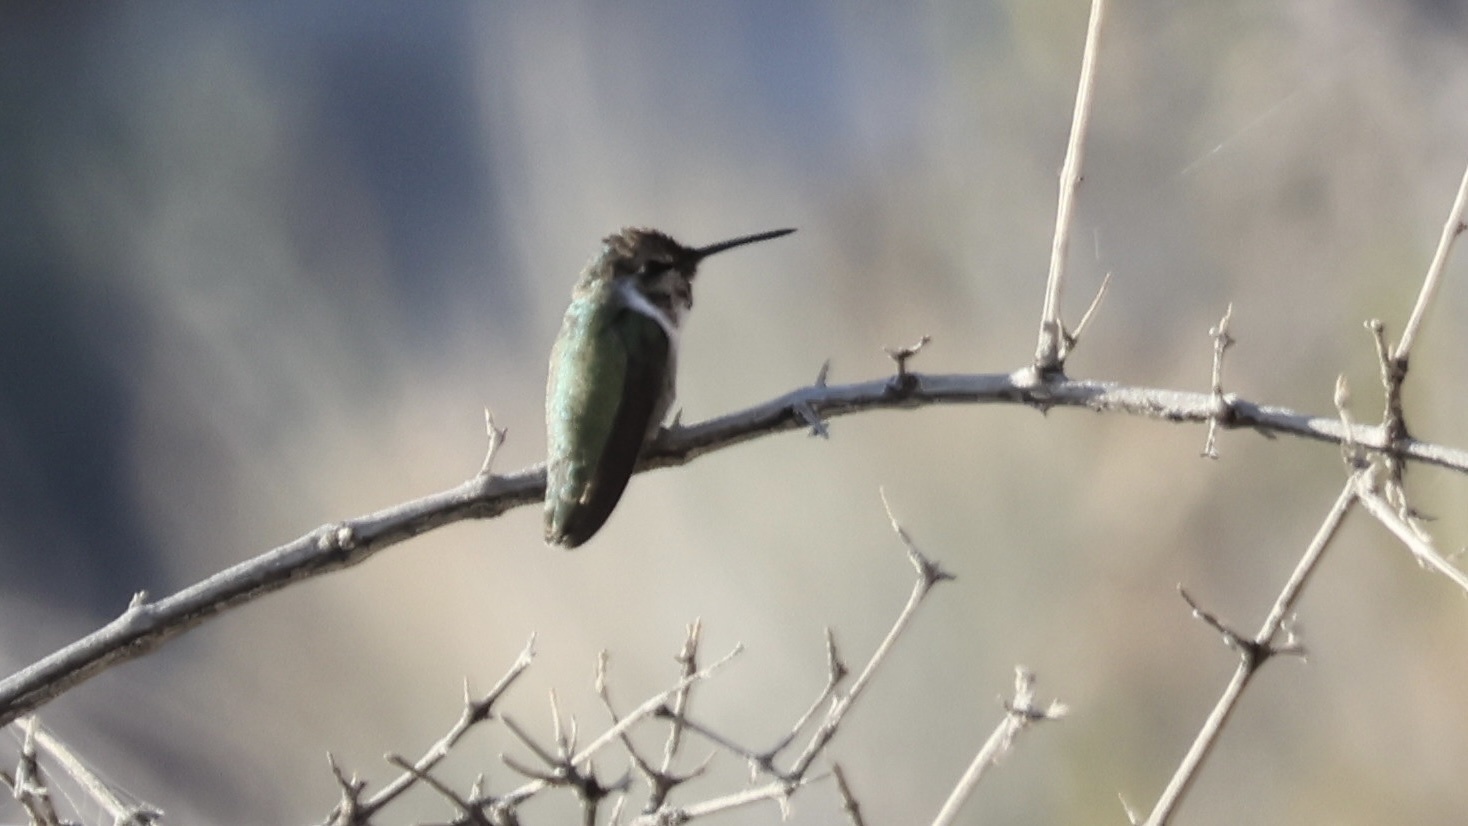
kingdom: Animalia
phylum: Chordata
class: Aves
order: Apodiformes
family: Trochilidae
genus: Calypte
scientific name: Calypte costae
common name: Costa's hummingbird
